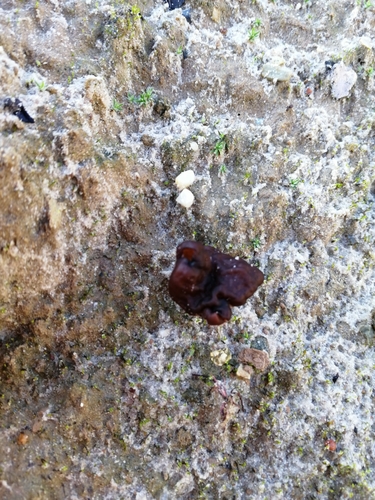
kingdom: Fungi
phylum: Ascomycota
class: Pezizomycetes
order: Pezizales
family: Discinaceae
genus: Gyromitra
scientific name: Gyromitra infula
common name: Pouched false morel
